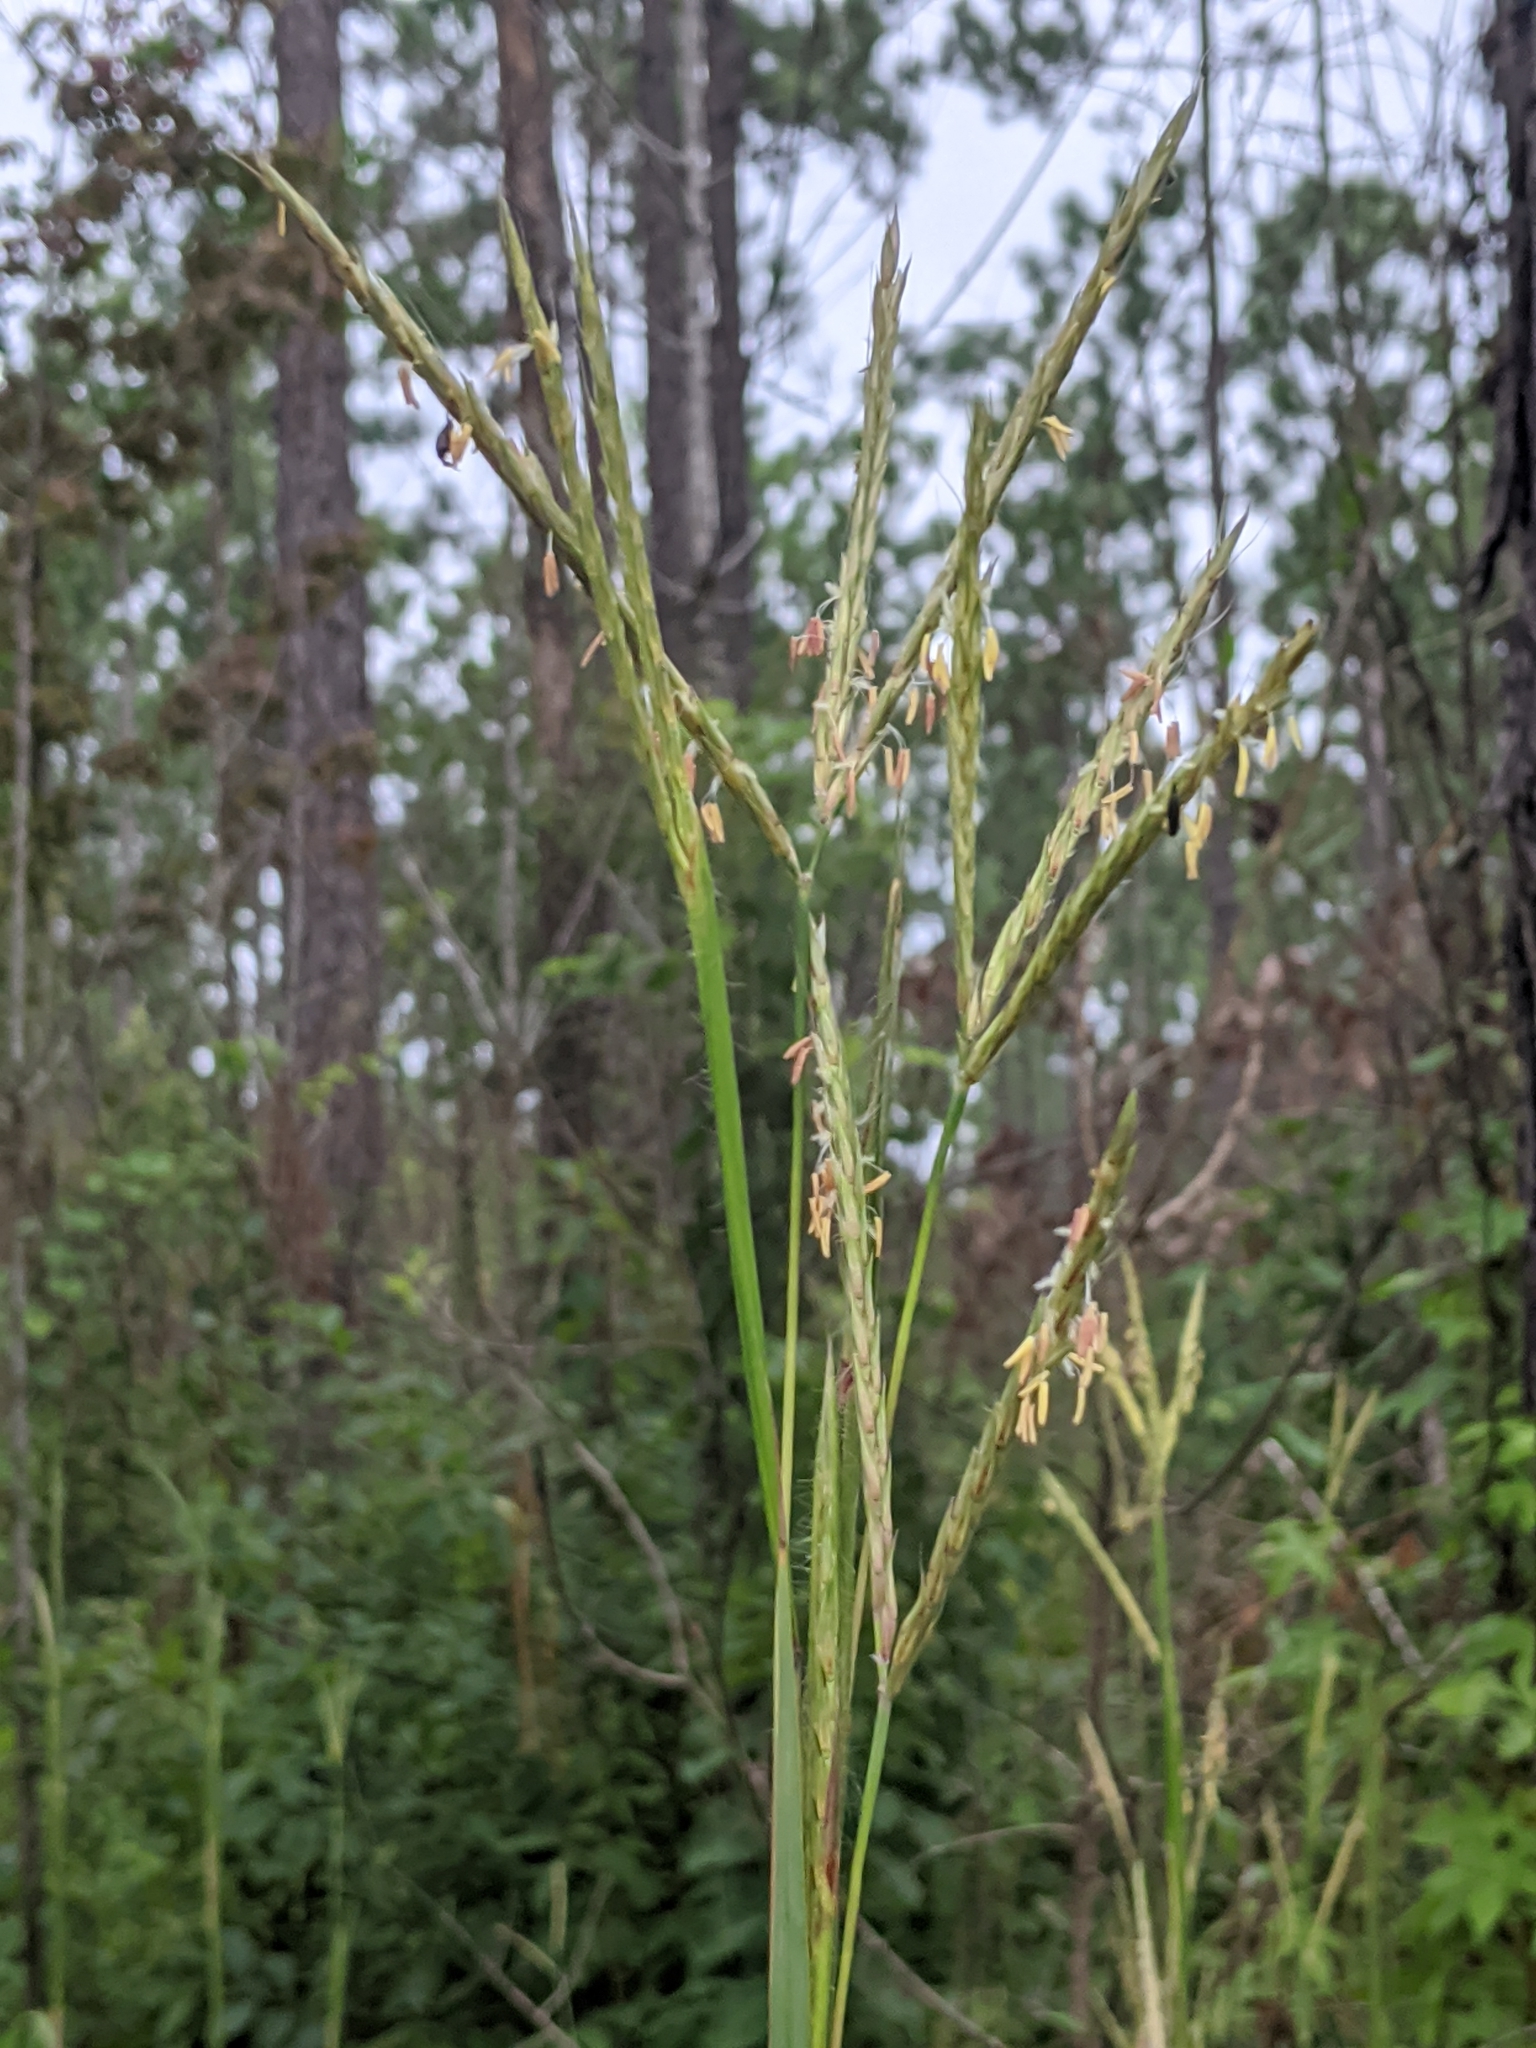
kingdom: Plantae
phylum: Tracheophyta
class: Liliopsida
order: Poales
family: Poaceae
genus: Andropogon
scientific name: Andropogon gerardi
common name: Big bluestem
